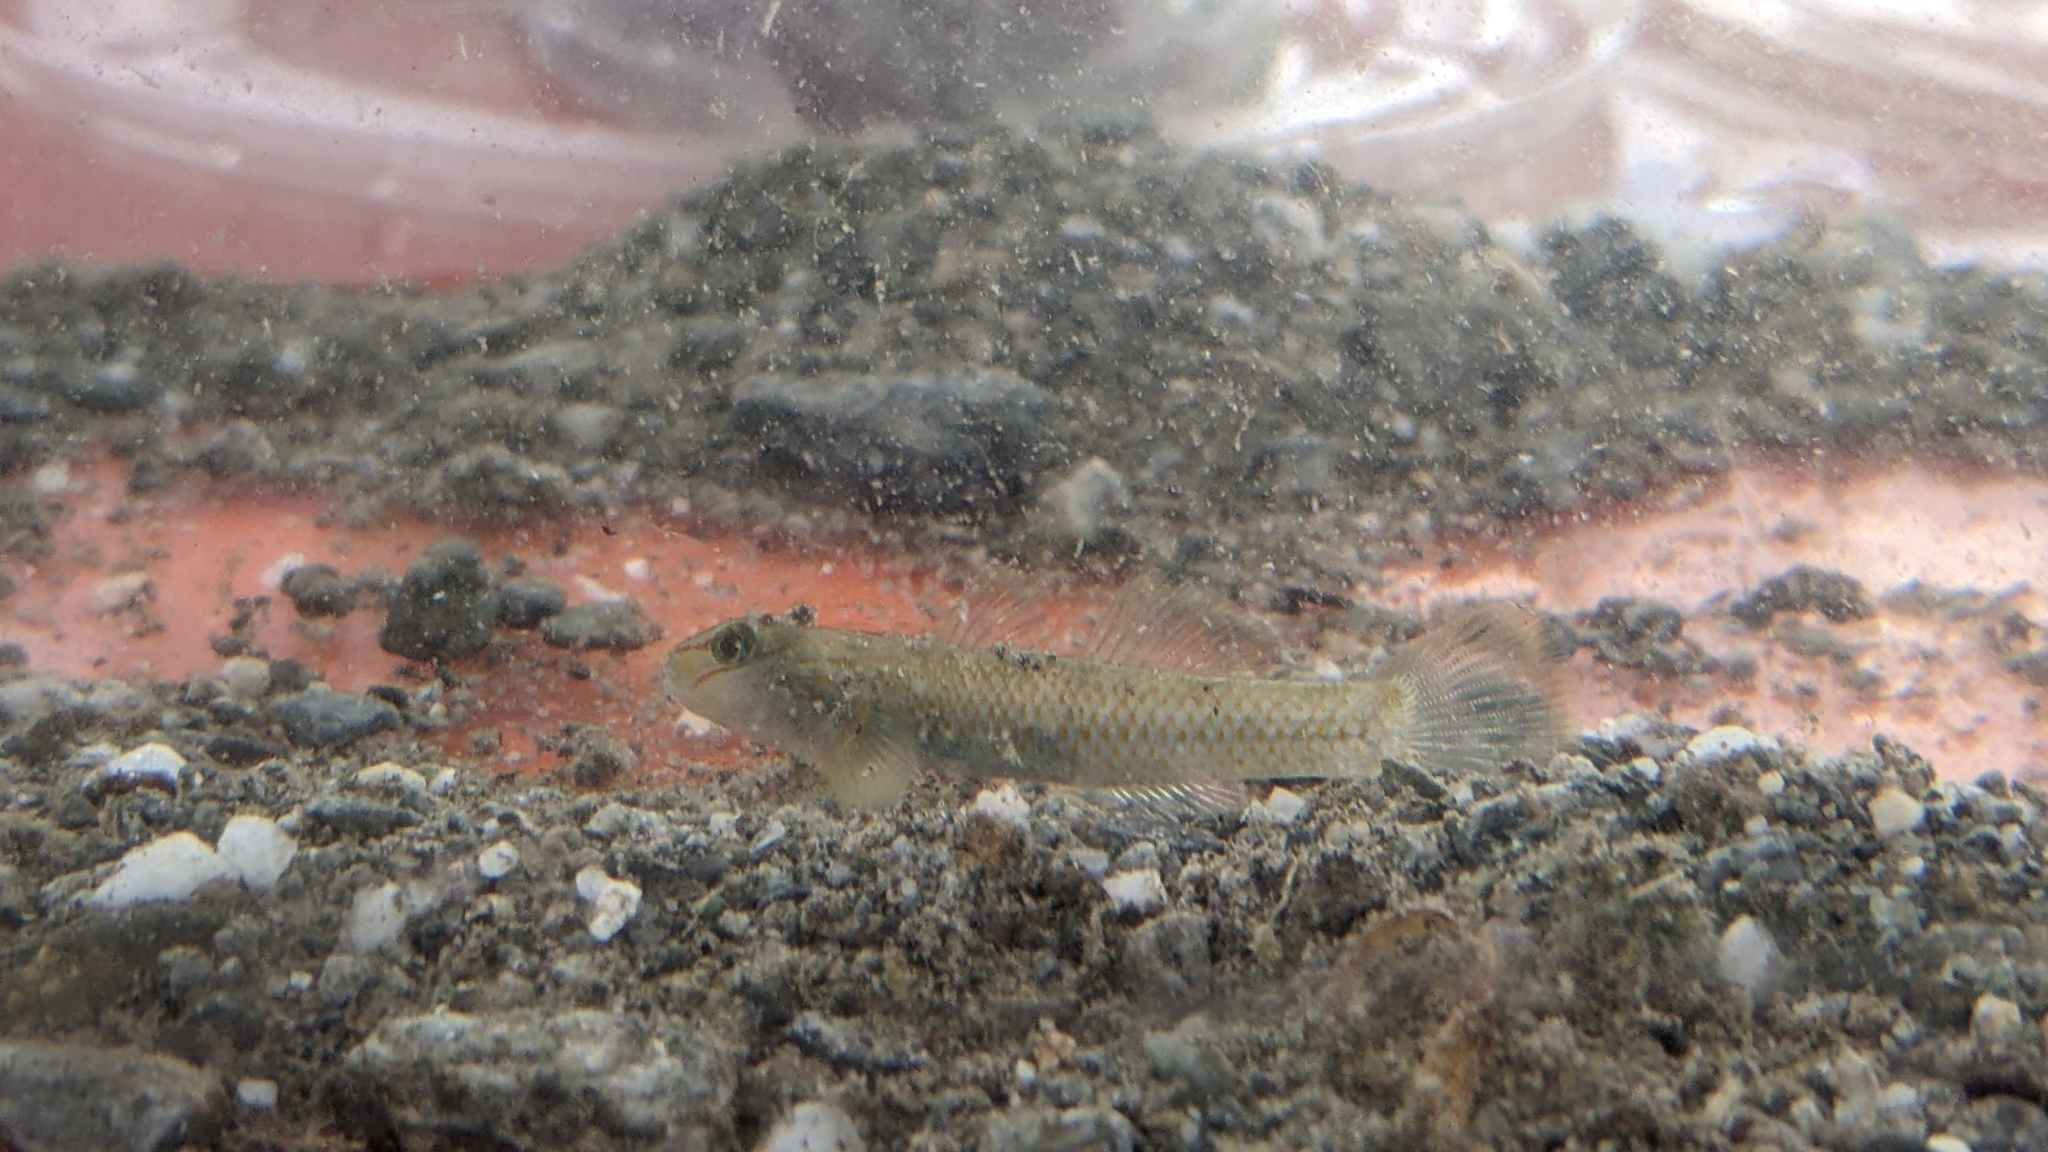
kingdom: Animalia
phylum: Chordata
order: Perciformes
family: Gobiidae
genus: Rhinogobius
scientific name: Rhinogobius candidianus
